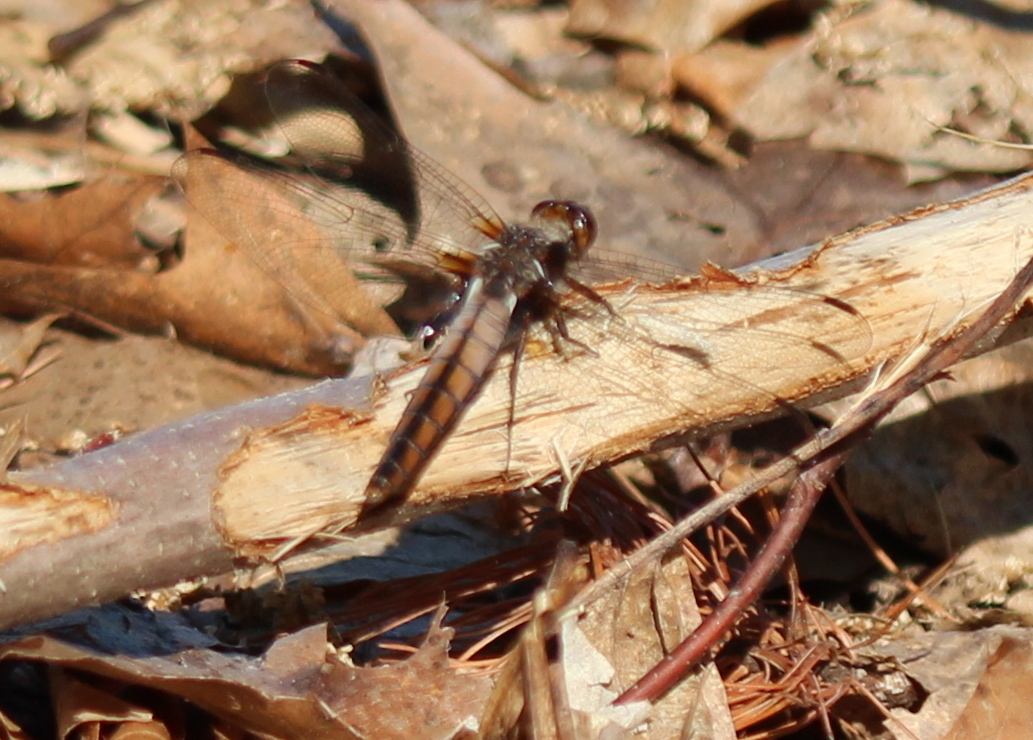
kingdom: Animalia
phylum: Arthropoda
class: Insecta
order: Odonata
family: Libellulidae
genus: Ladona
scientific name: Ladona julia
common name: Chalk-fronted corporal
